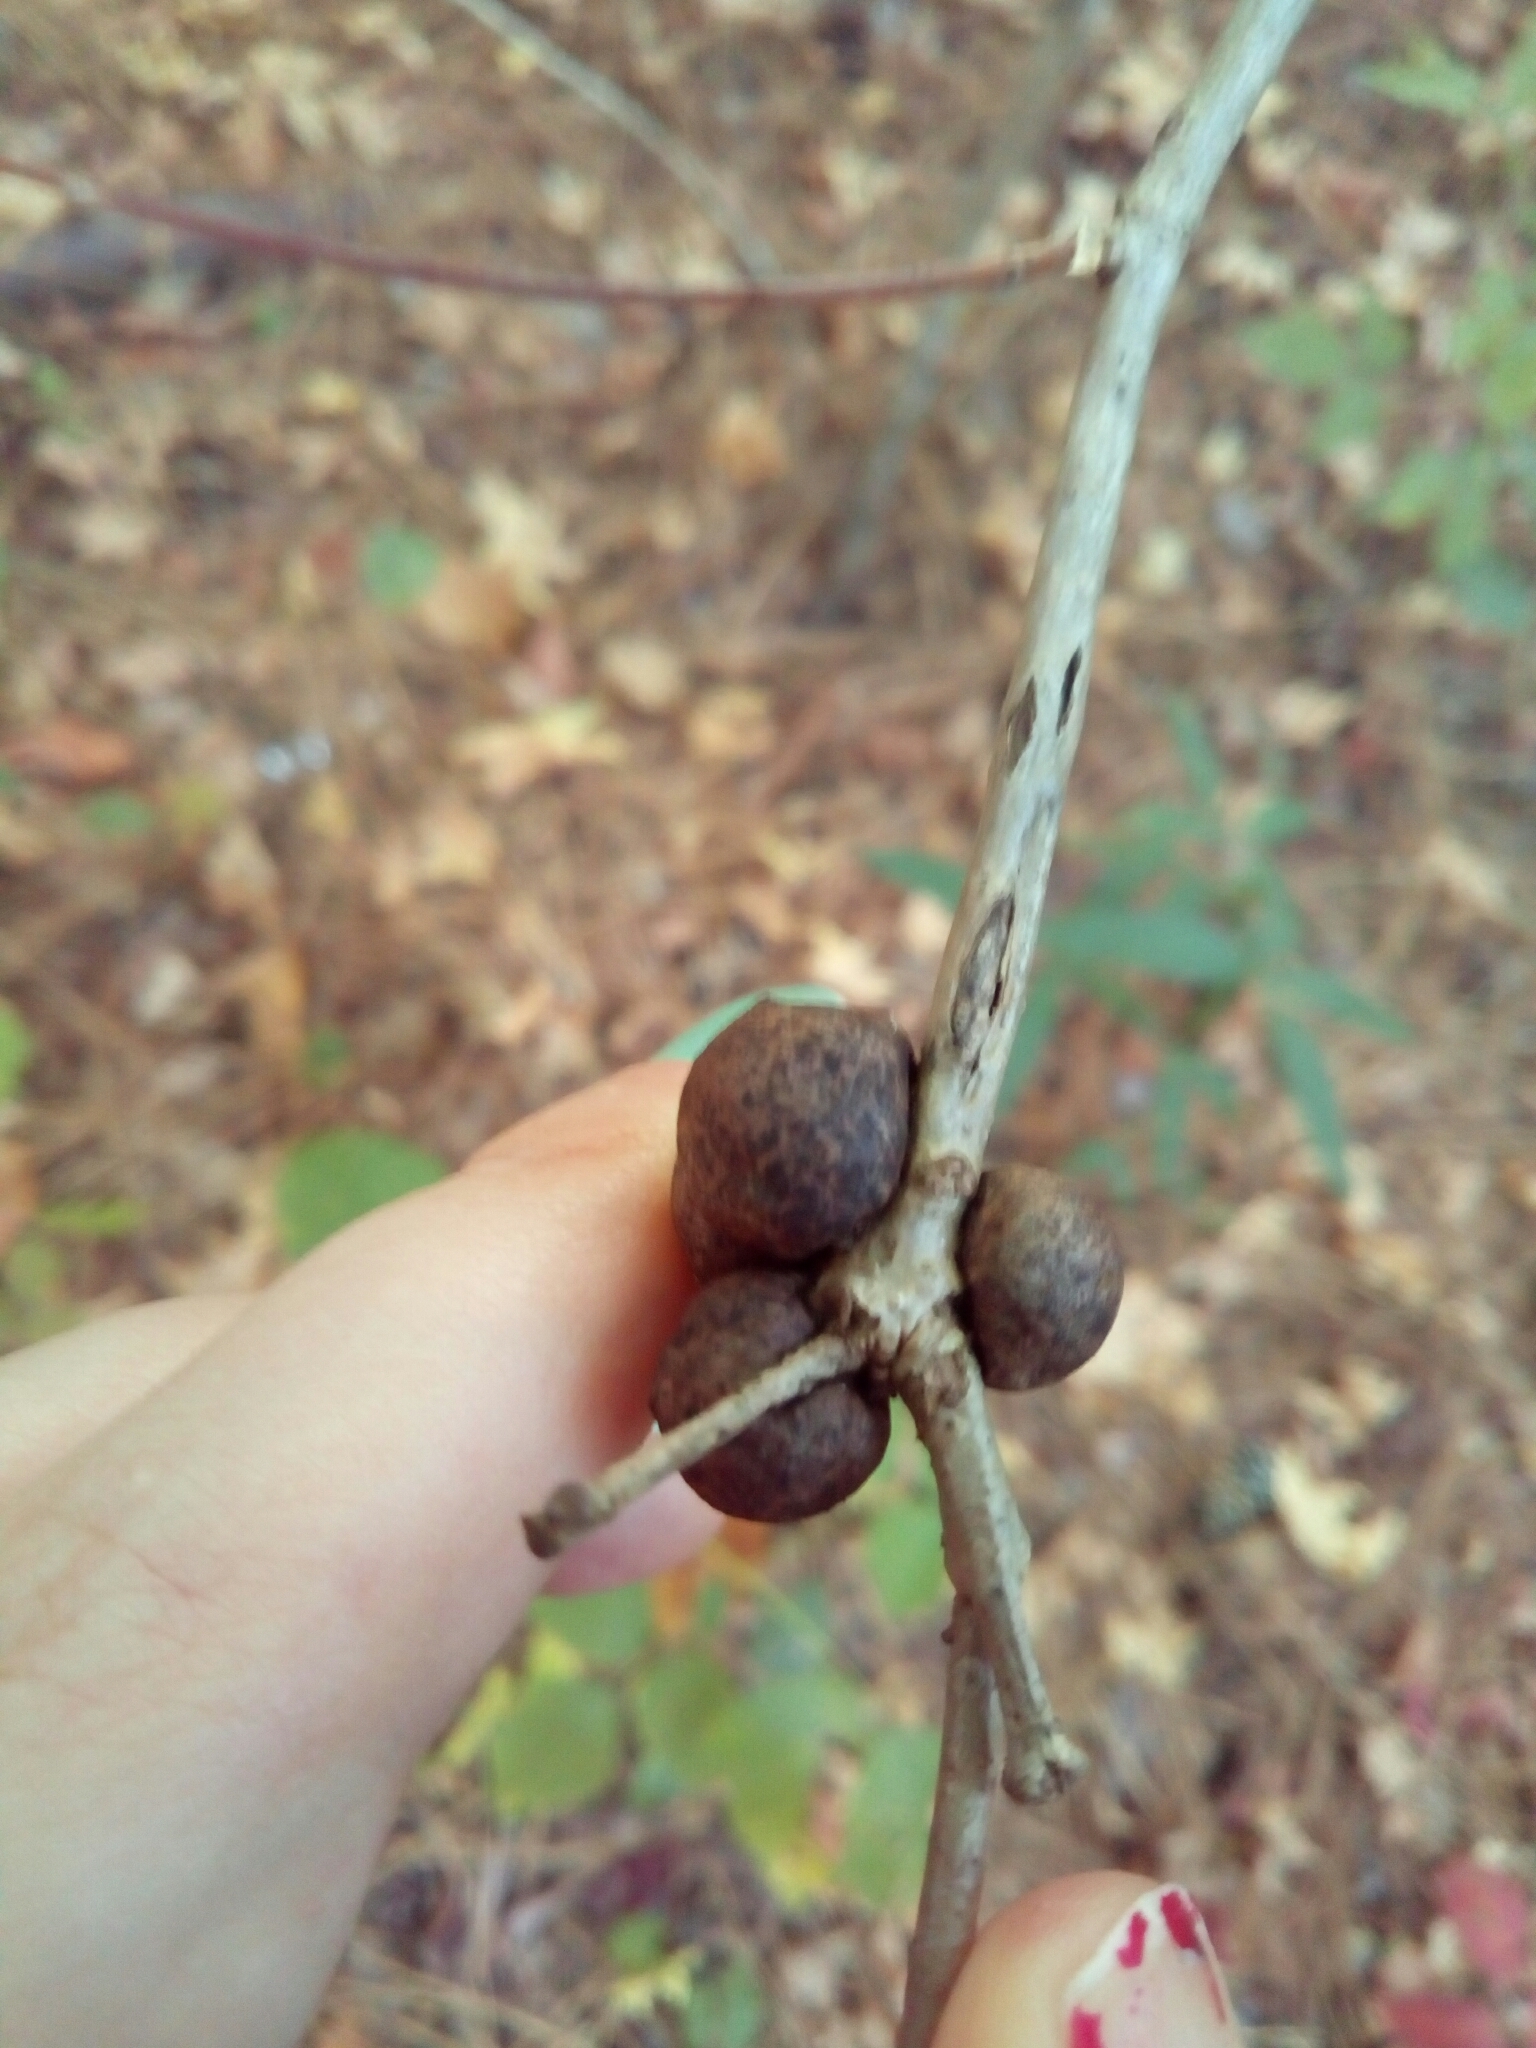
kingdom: Animalia
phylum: Arthropoda
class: Insecta
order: Hymenoptera
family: Cynipidae
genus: Disholcaspis
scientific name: Disholcaspis quercusglobulus
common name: Round bullet gall wasp
